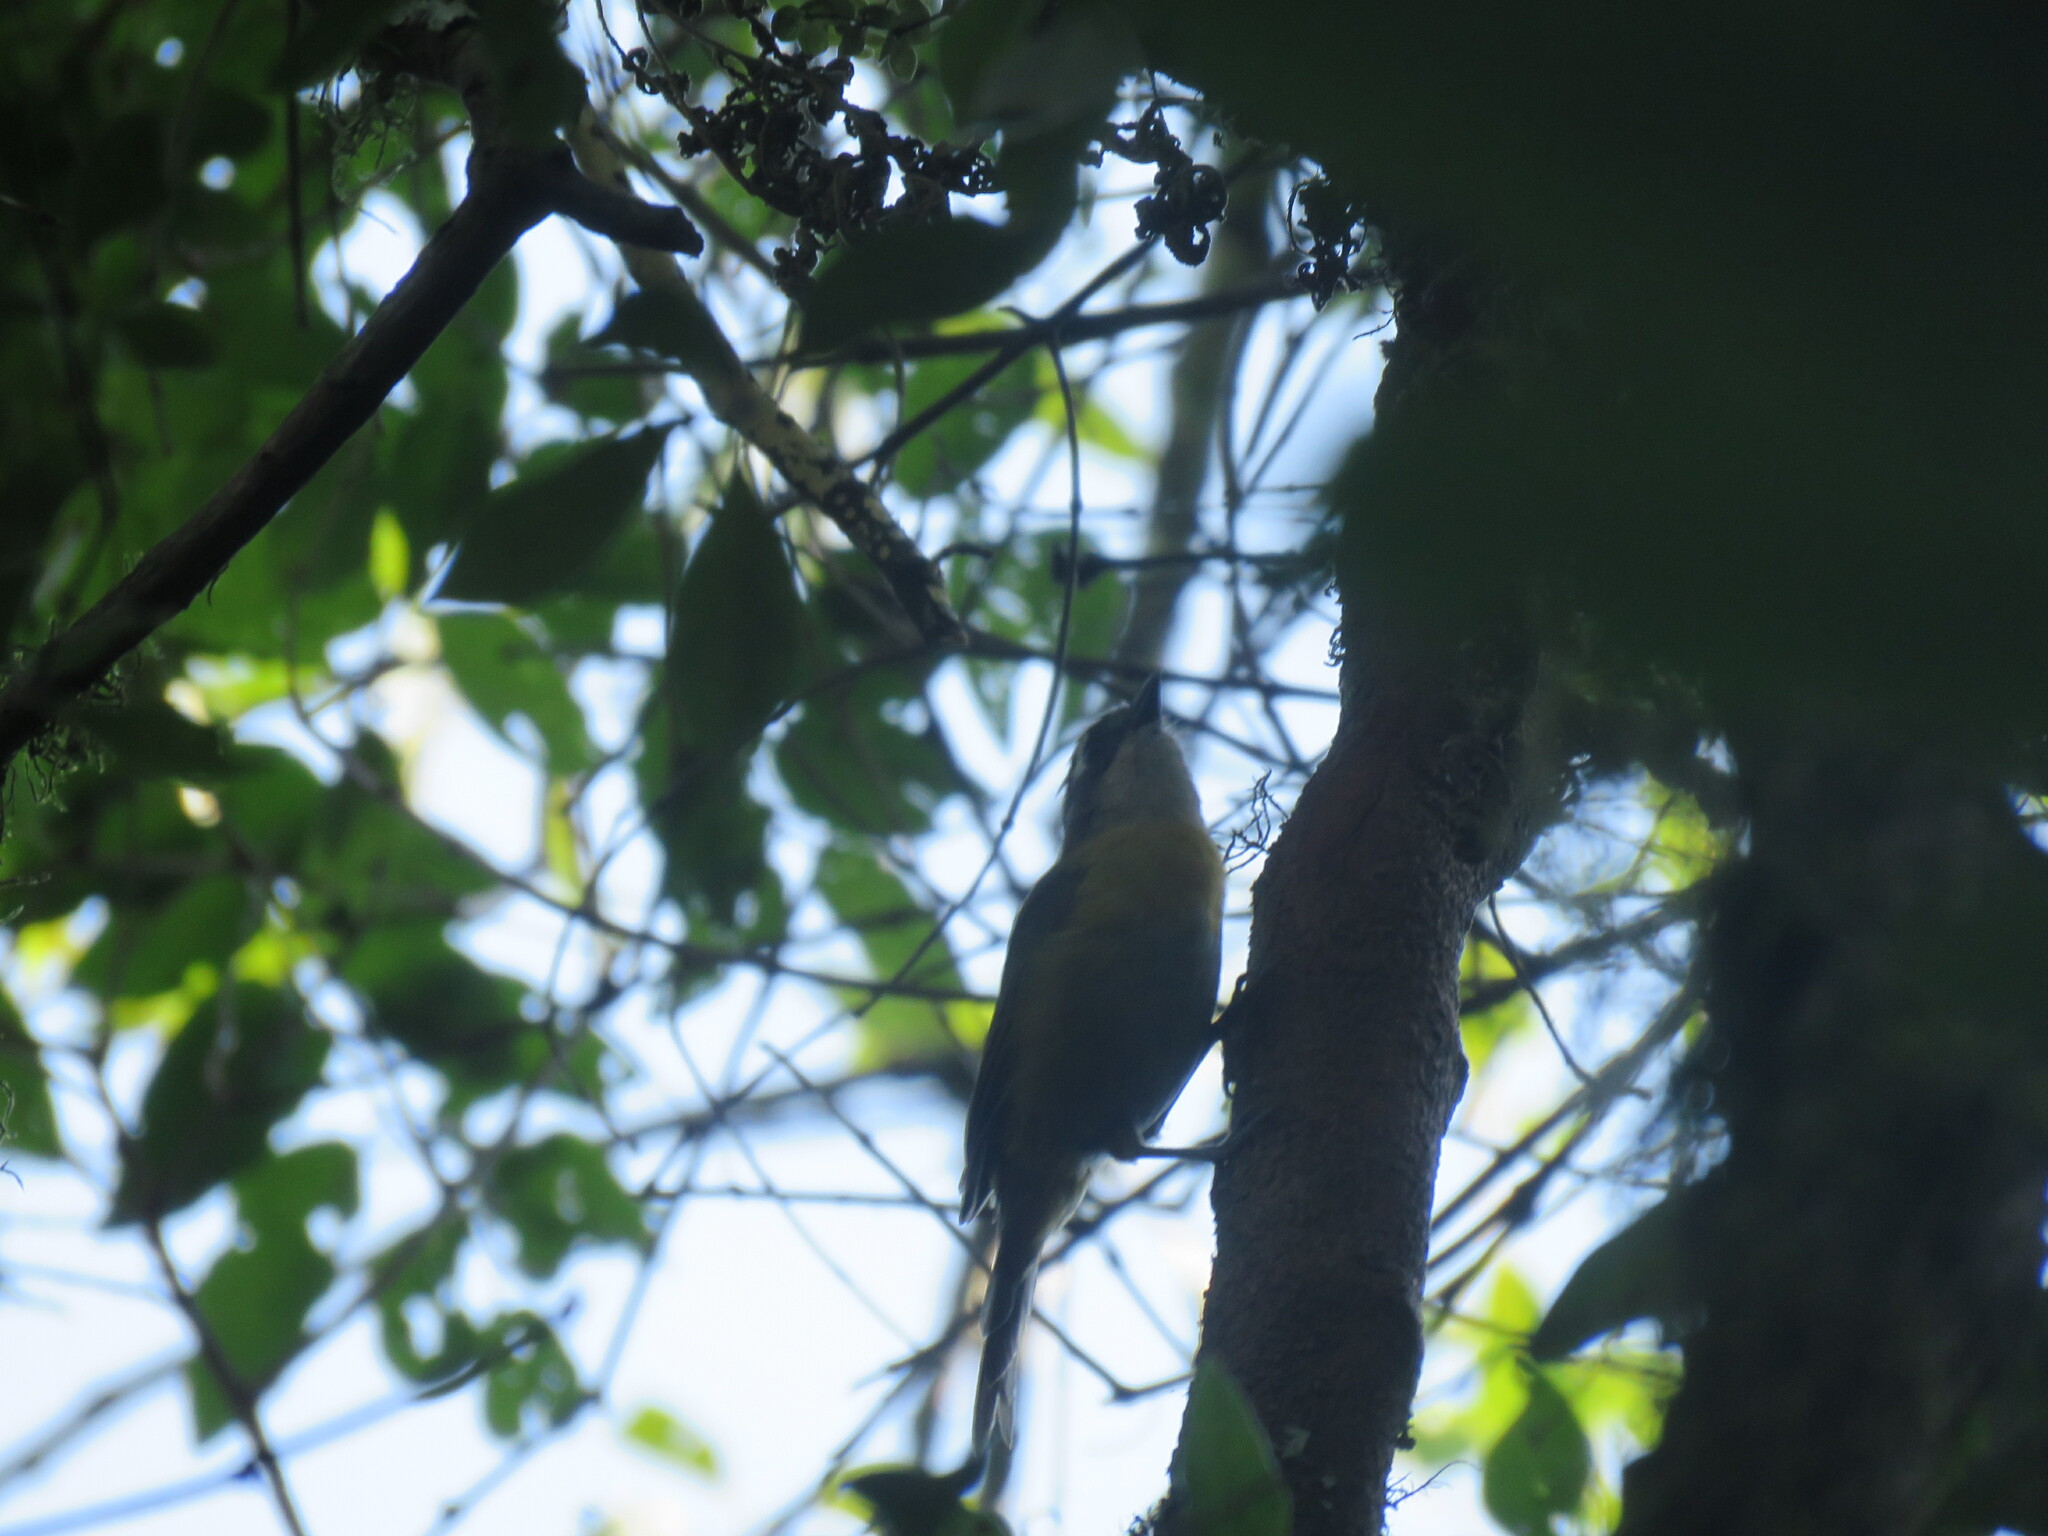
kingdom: Animalia
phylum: Chordata
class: Aves
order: Passeriformes
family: Passerellidae
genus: Chlorospingus
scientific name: Chlorospingus flavopectus
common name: Common chlorospingus
